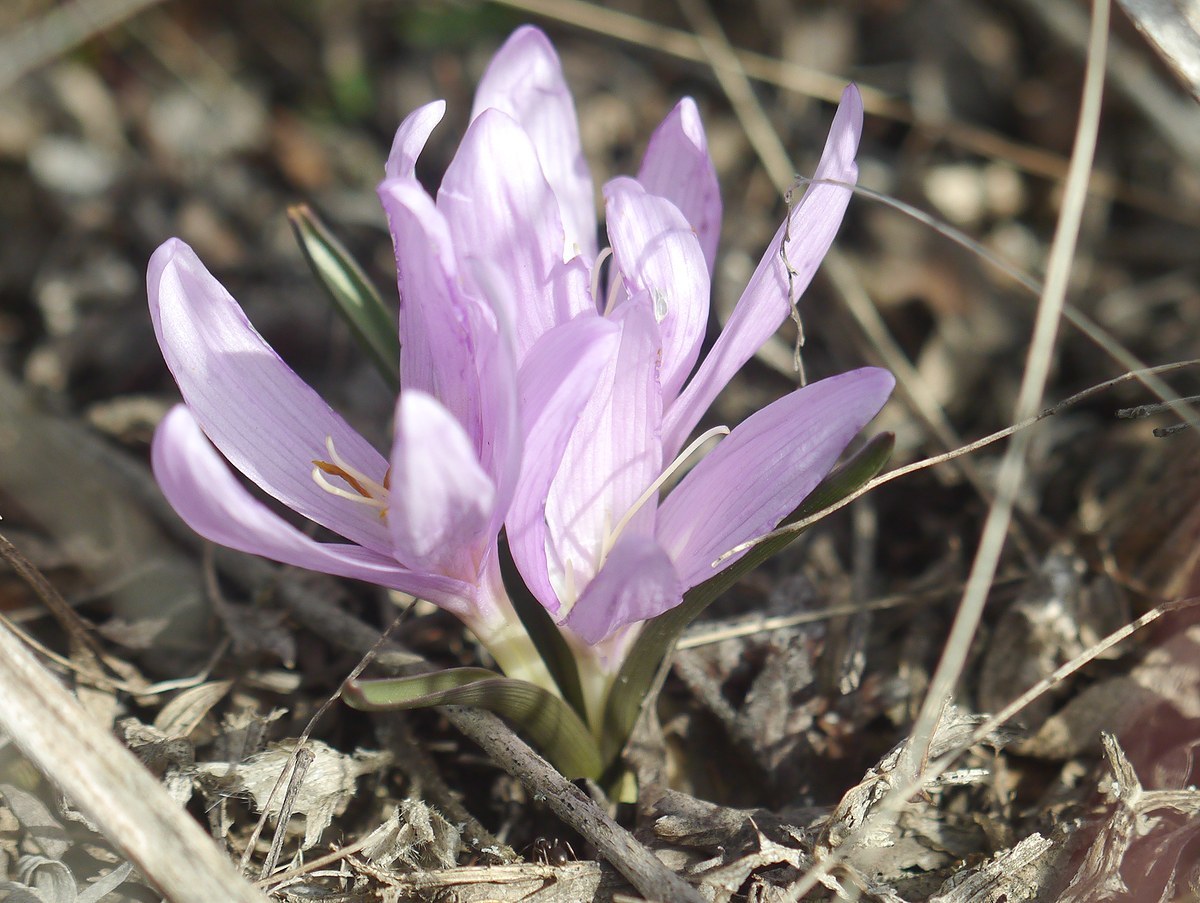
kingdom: Plantae
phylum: Tracheophyta
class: Liliopsida
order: Liliales
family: Colchicaceae
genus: Colchicum
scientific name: Colchicum bulbocodium
